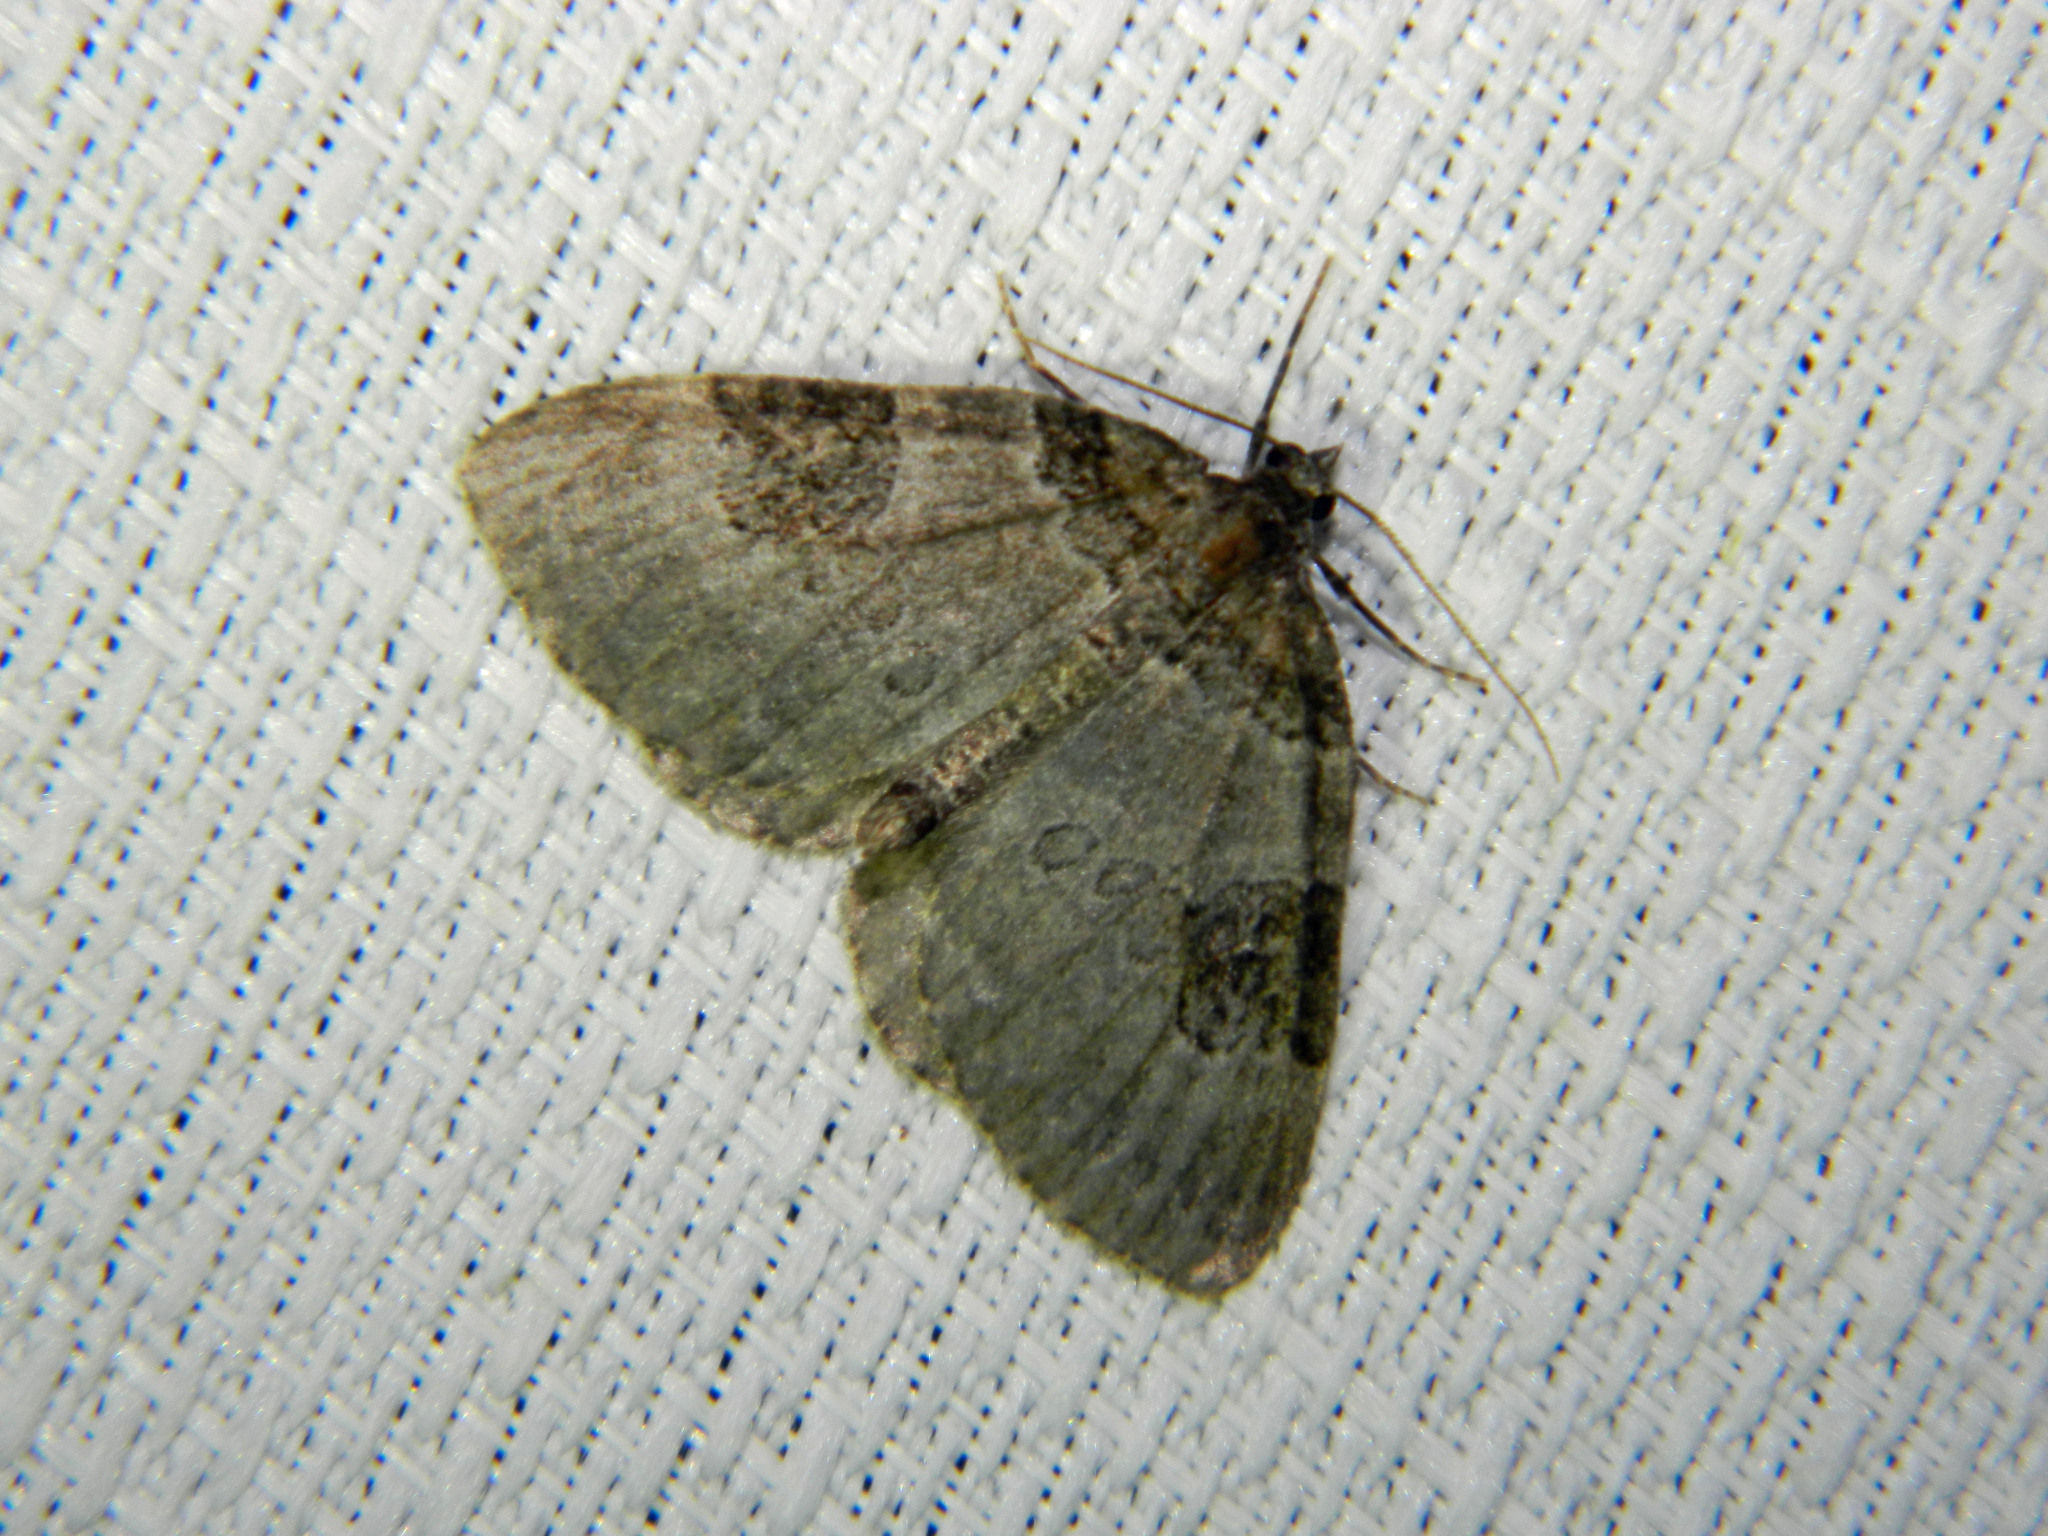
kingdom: Animalia
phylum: Arthropoda
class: Insecta
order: Lepidoptera
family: Geometridae
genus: Plemyria
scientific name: Plemyria georgii
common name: George's carpet moth
